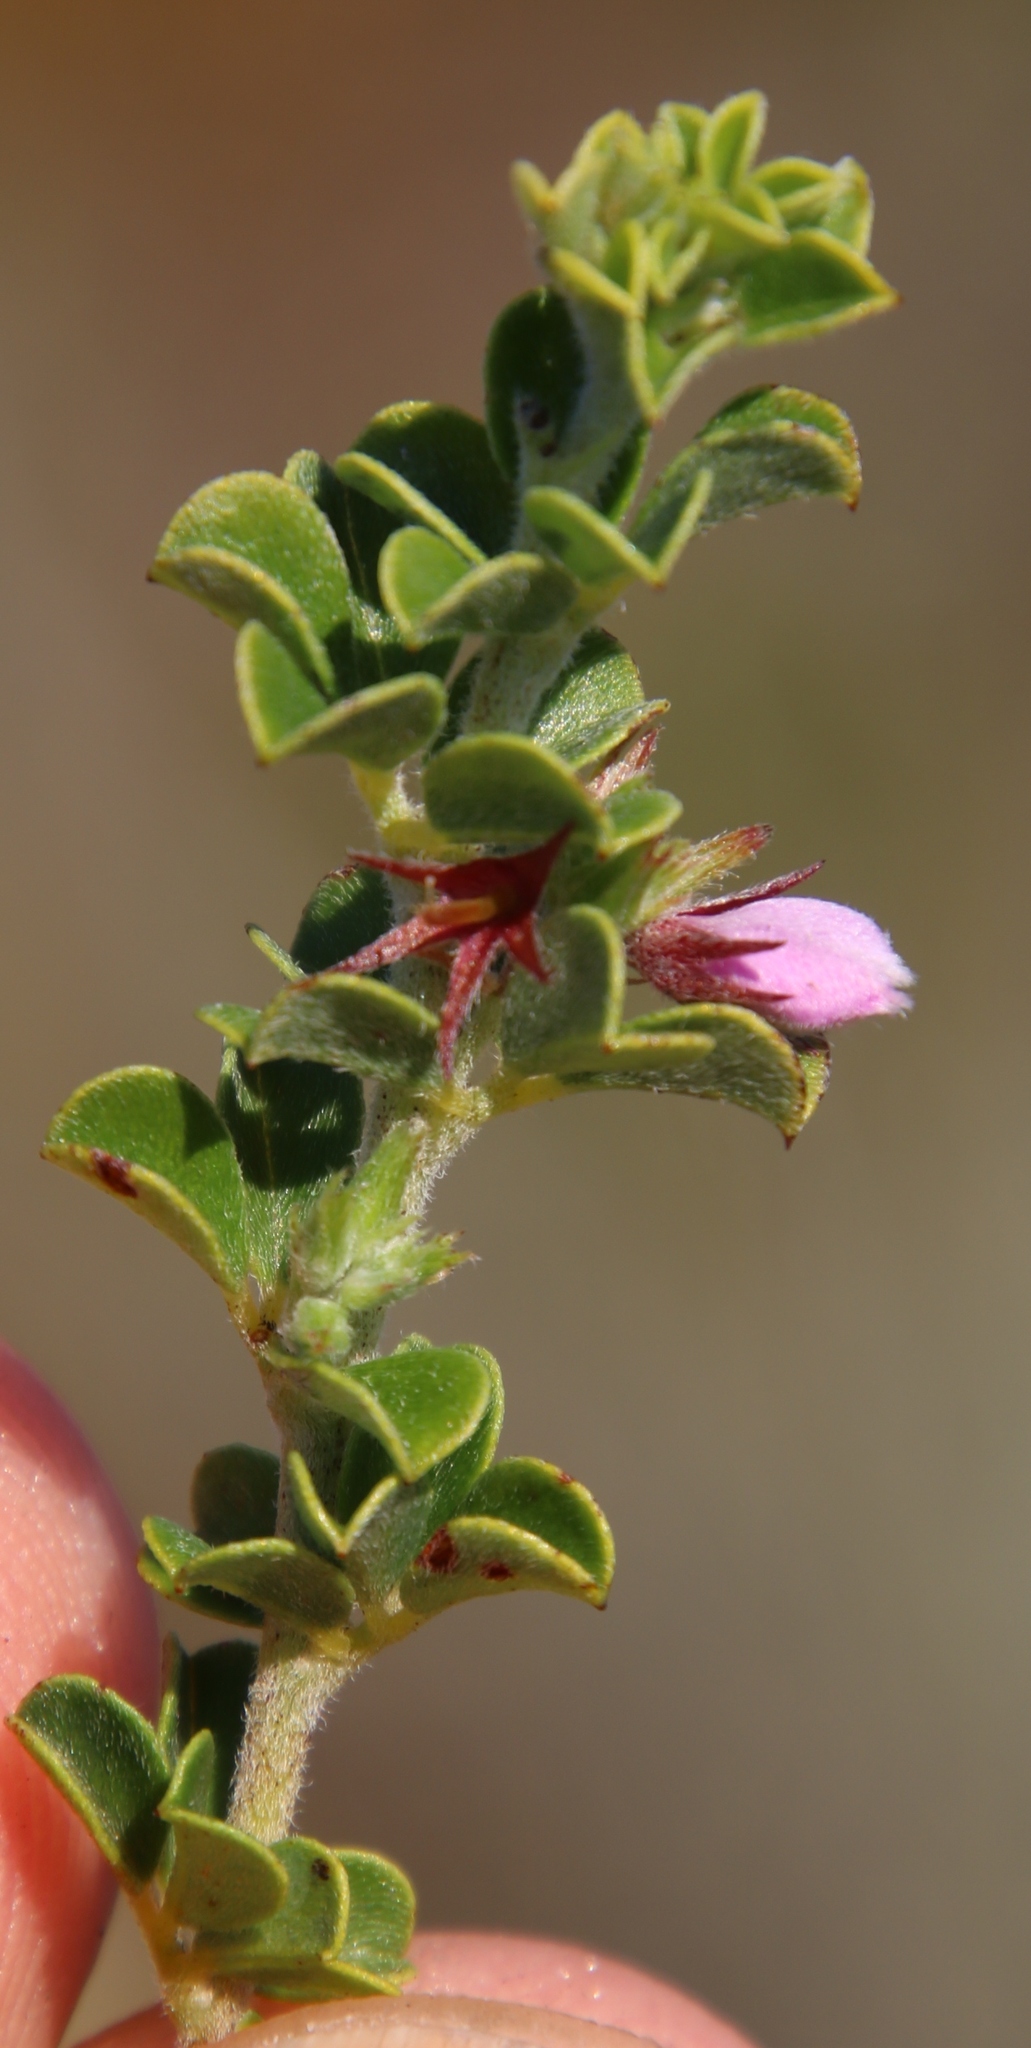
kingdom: Plantae
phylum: Tracheophyta
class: Magnoliopsida
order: Fabales
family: Fabaceae
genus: Indigofera
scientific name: Indigofera candolleana
